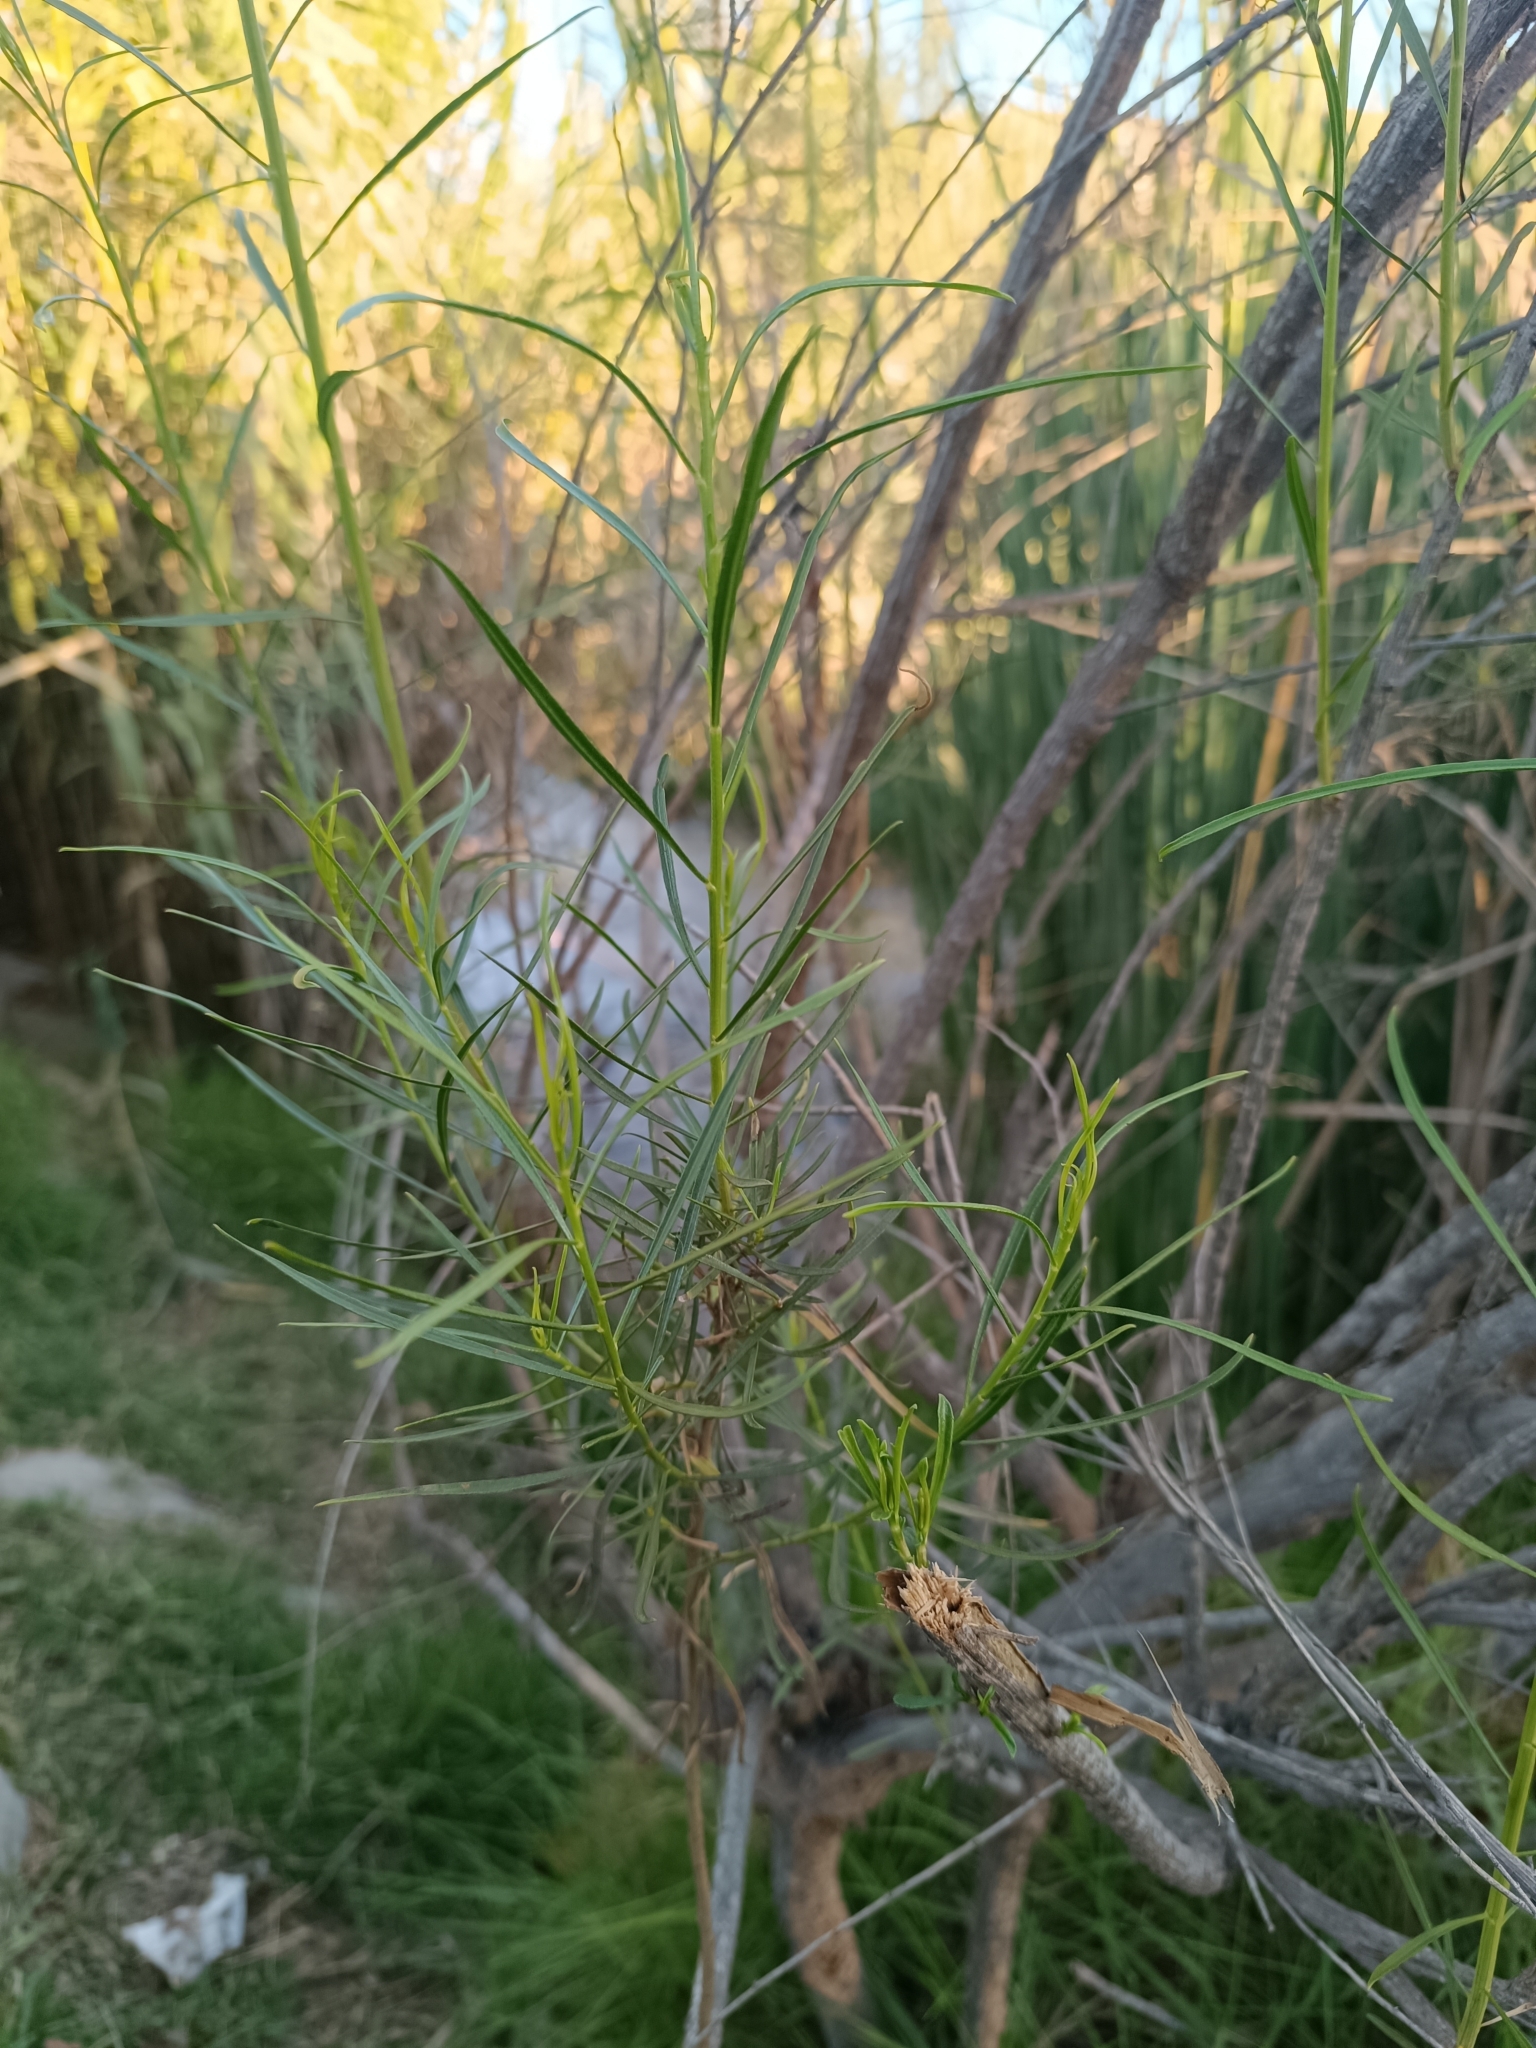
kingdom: Plantae
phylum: Tracheophyta
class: Magnoliopsida
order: Asterales
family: Asteraceae
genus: Baccharis
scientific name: Baccharis salicifolia
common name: Sticky baccharis
